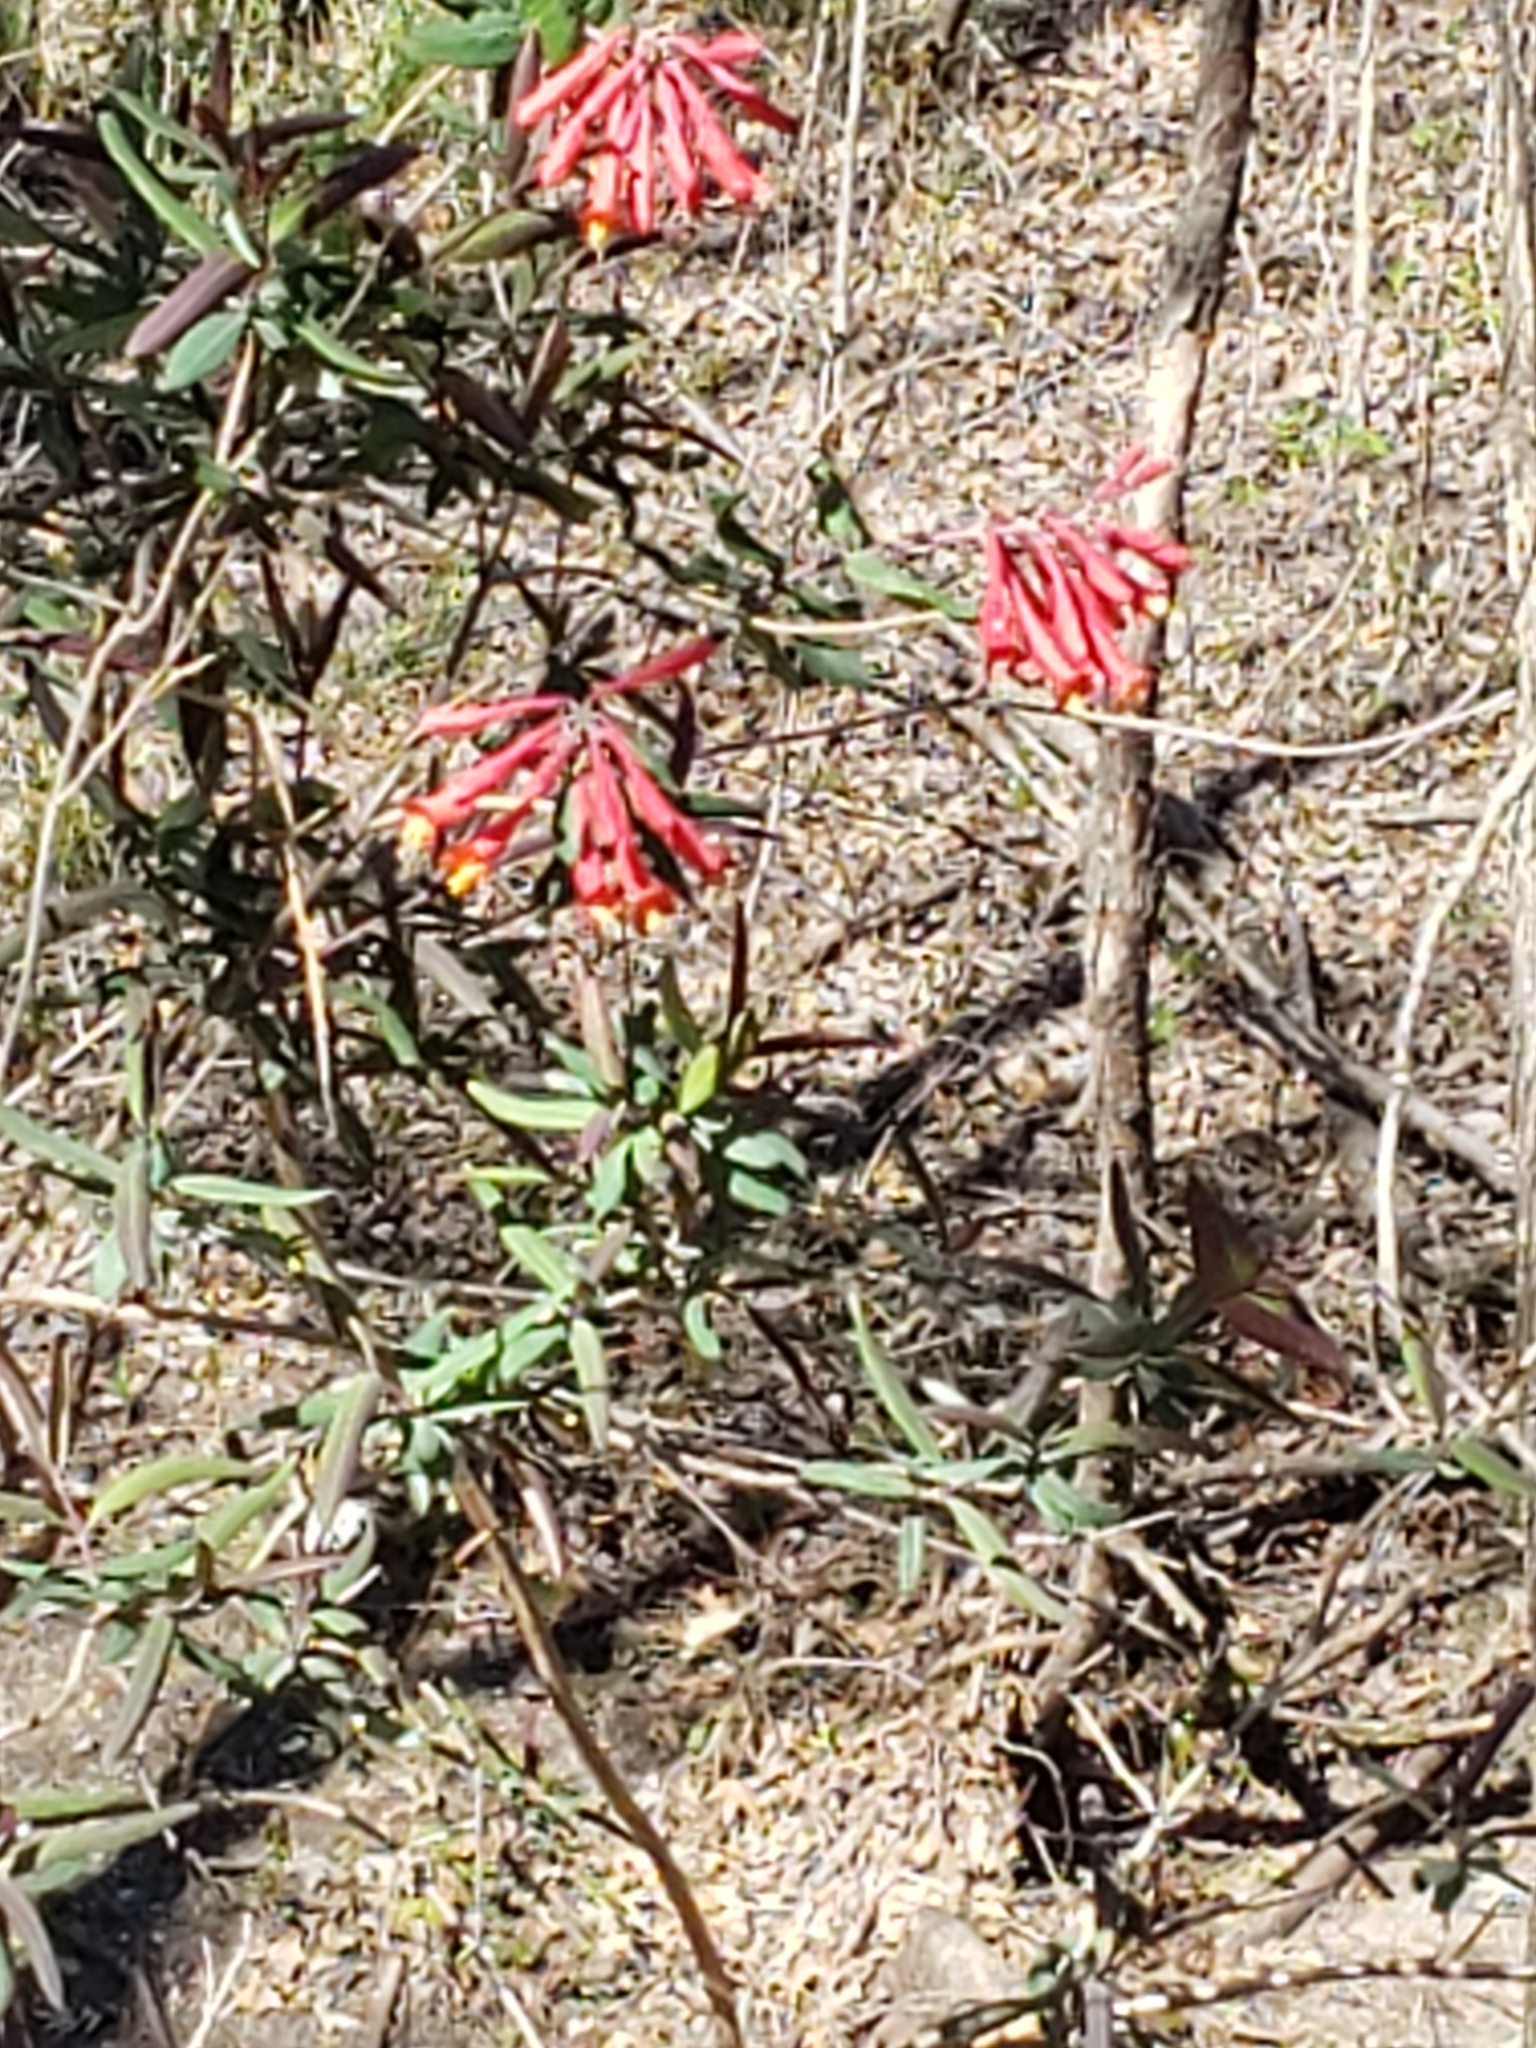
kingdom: Plantae
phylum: Tracheophyta
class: Magnoliopsida
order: Dipsacales
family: Caprifoliaceae
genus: Lonicera
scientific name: Lonicera sempervirens
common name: Coral honeysuckle
